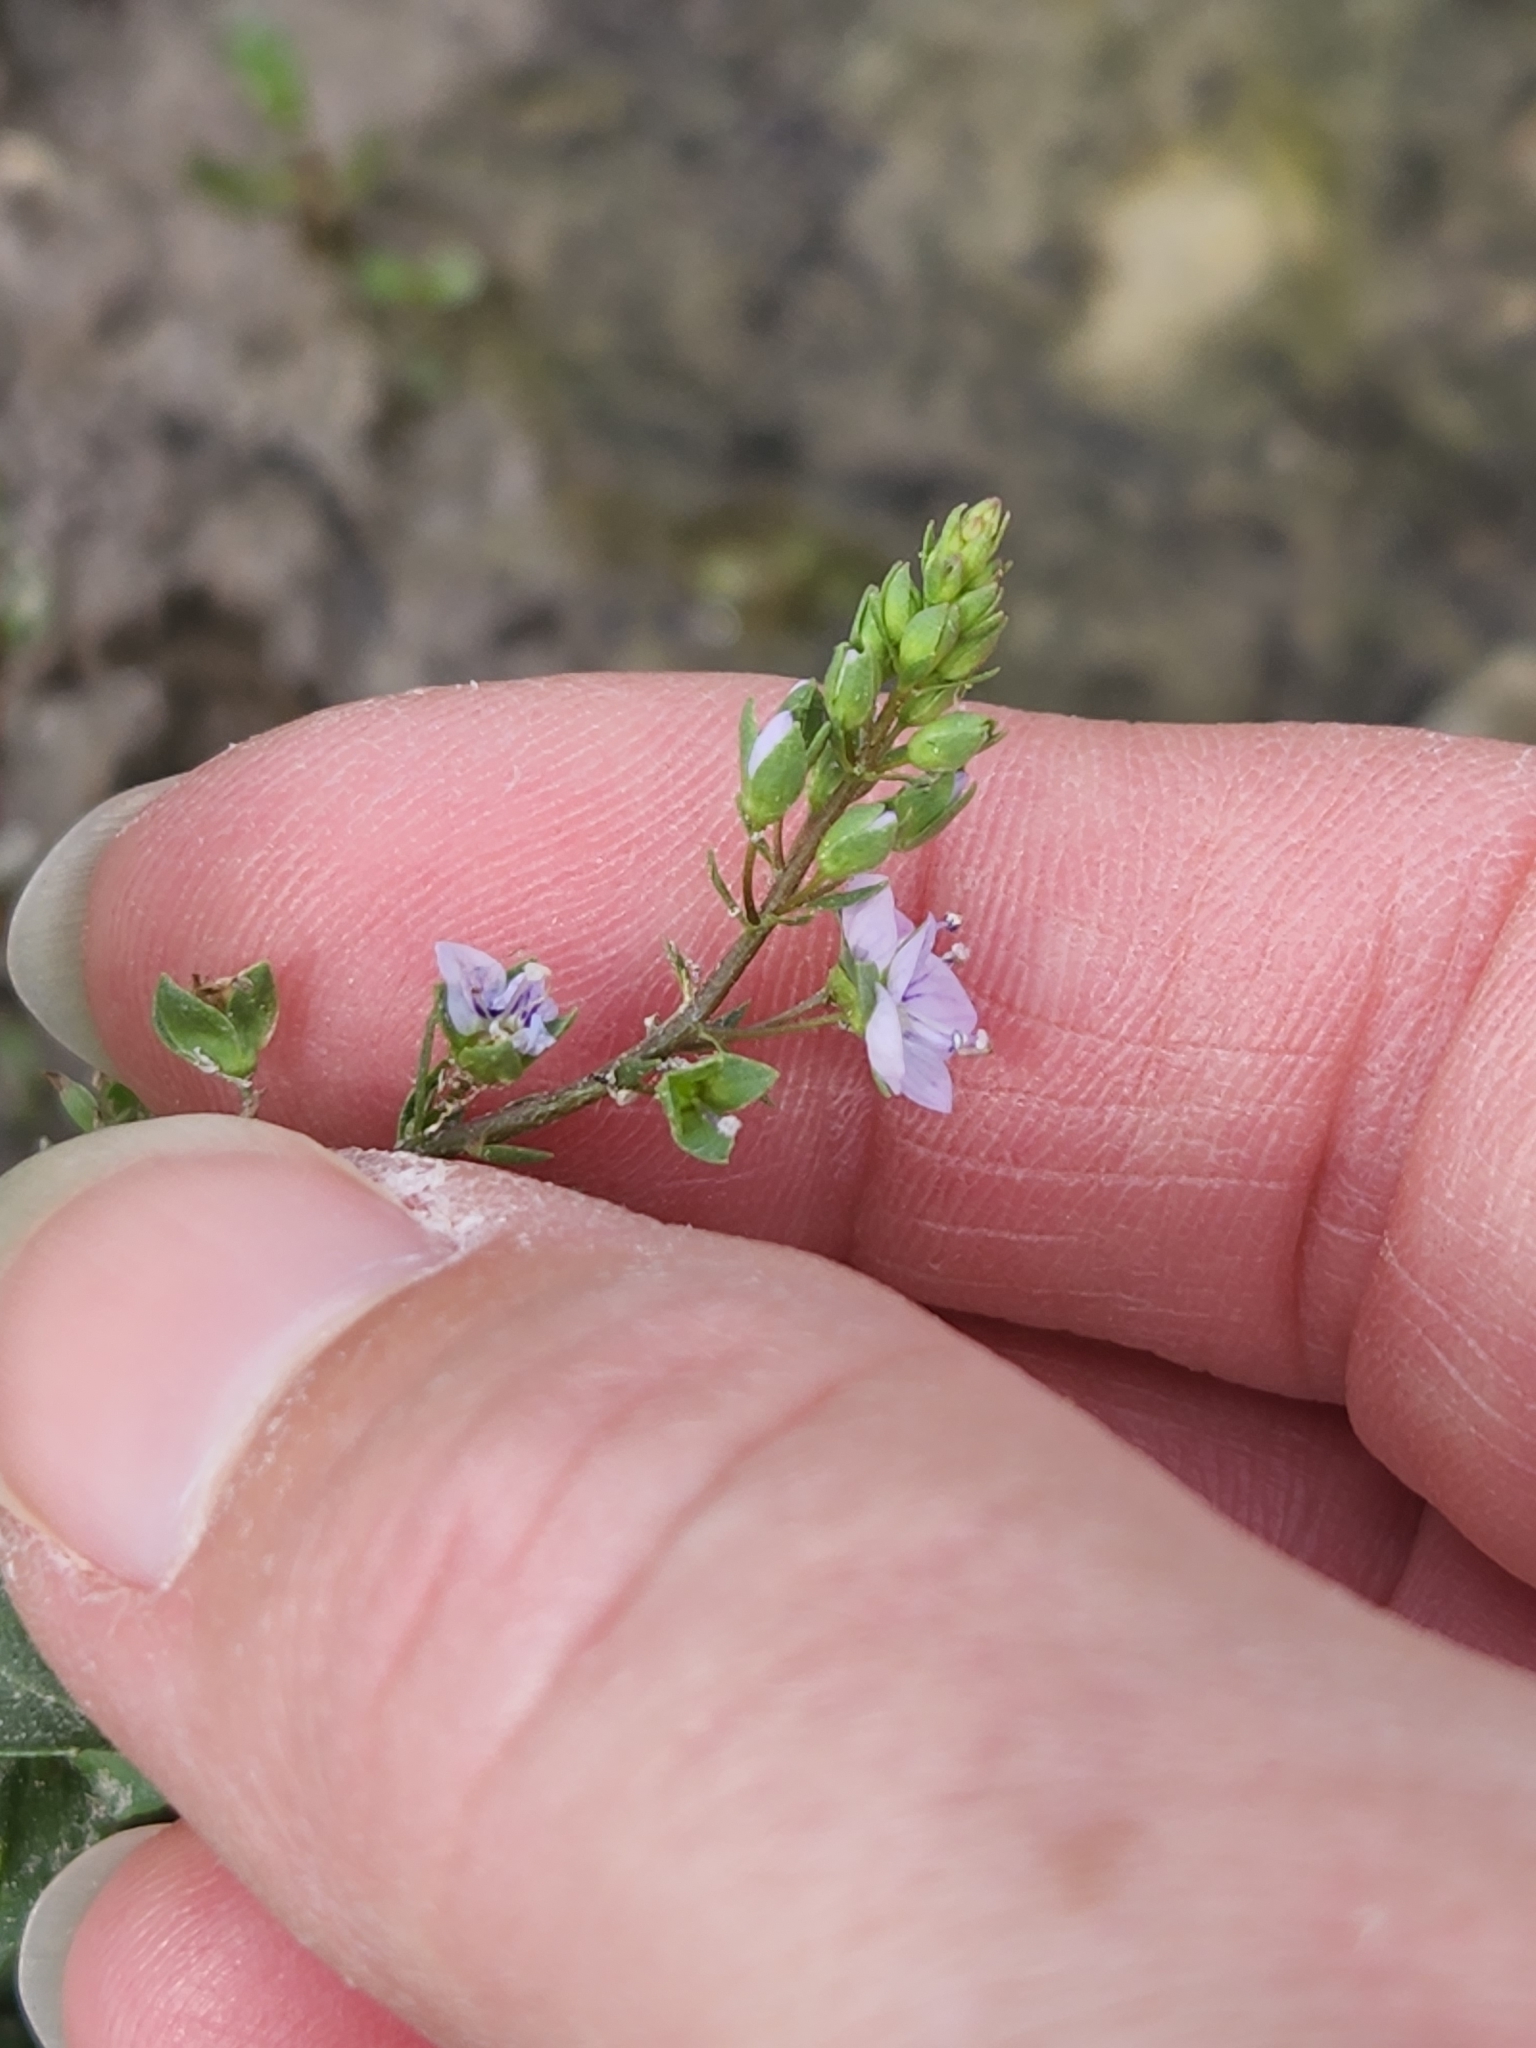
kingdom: Plantae
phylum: Tracheophyta
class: Magnoliopsida
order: Lamiales
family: Plantaginaceae
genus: Veronica
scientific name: Veronica anagallis-aquatica
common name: Water speedwell
